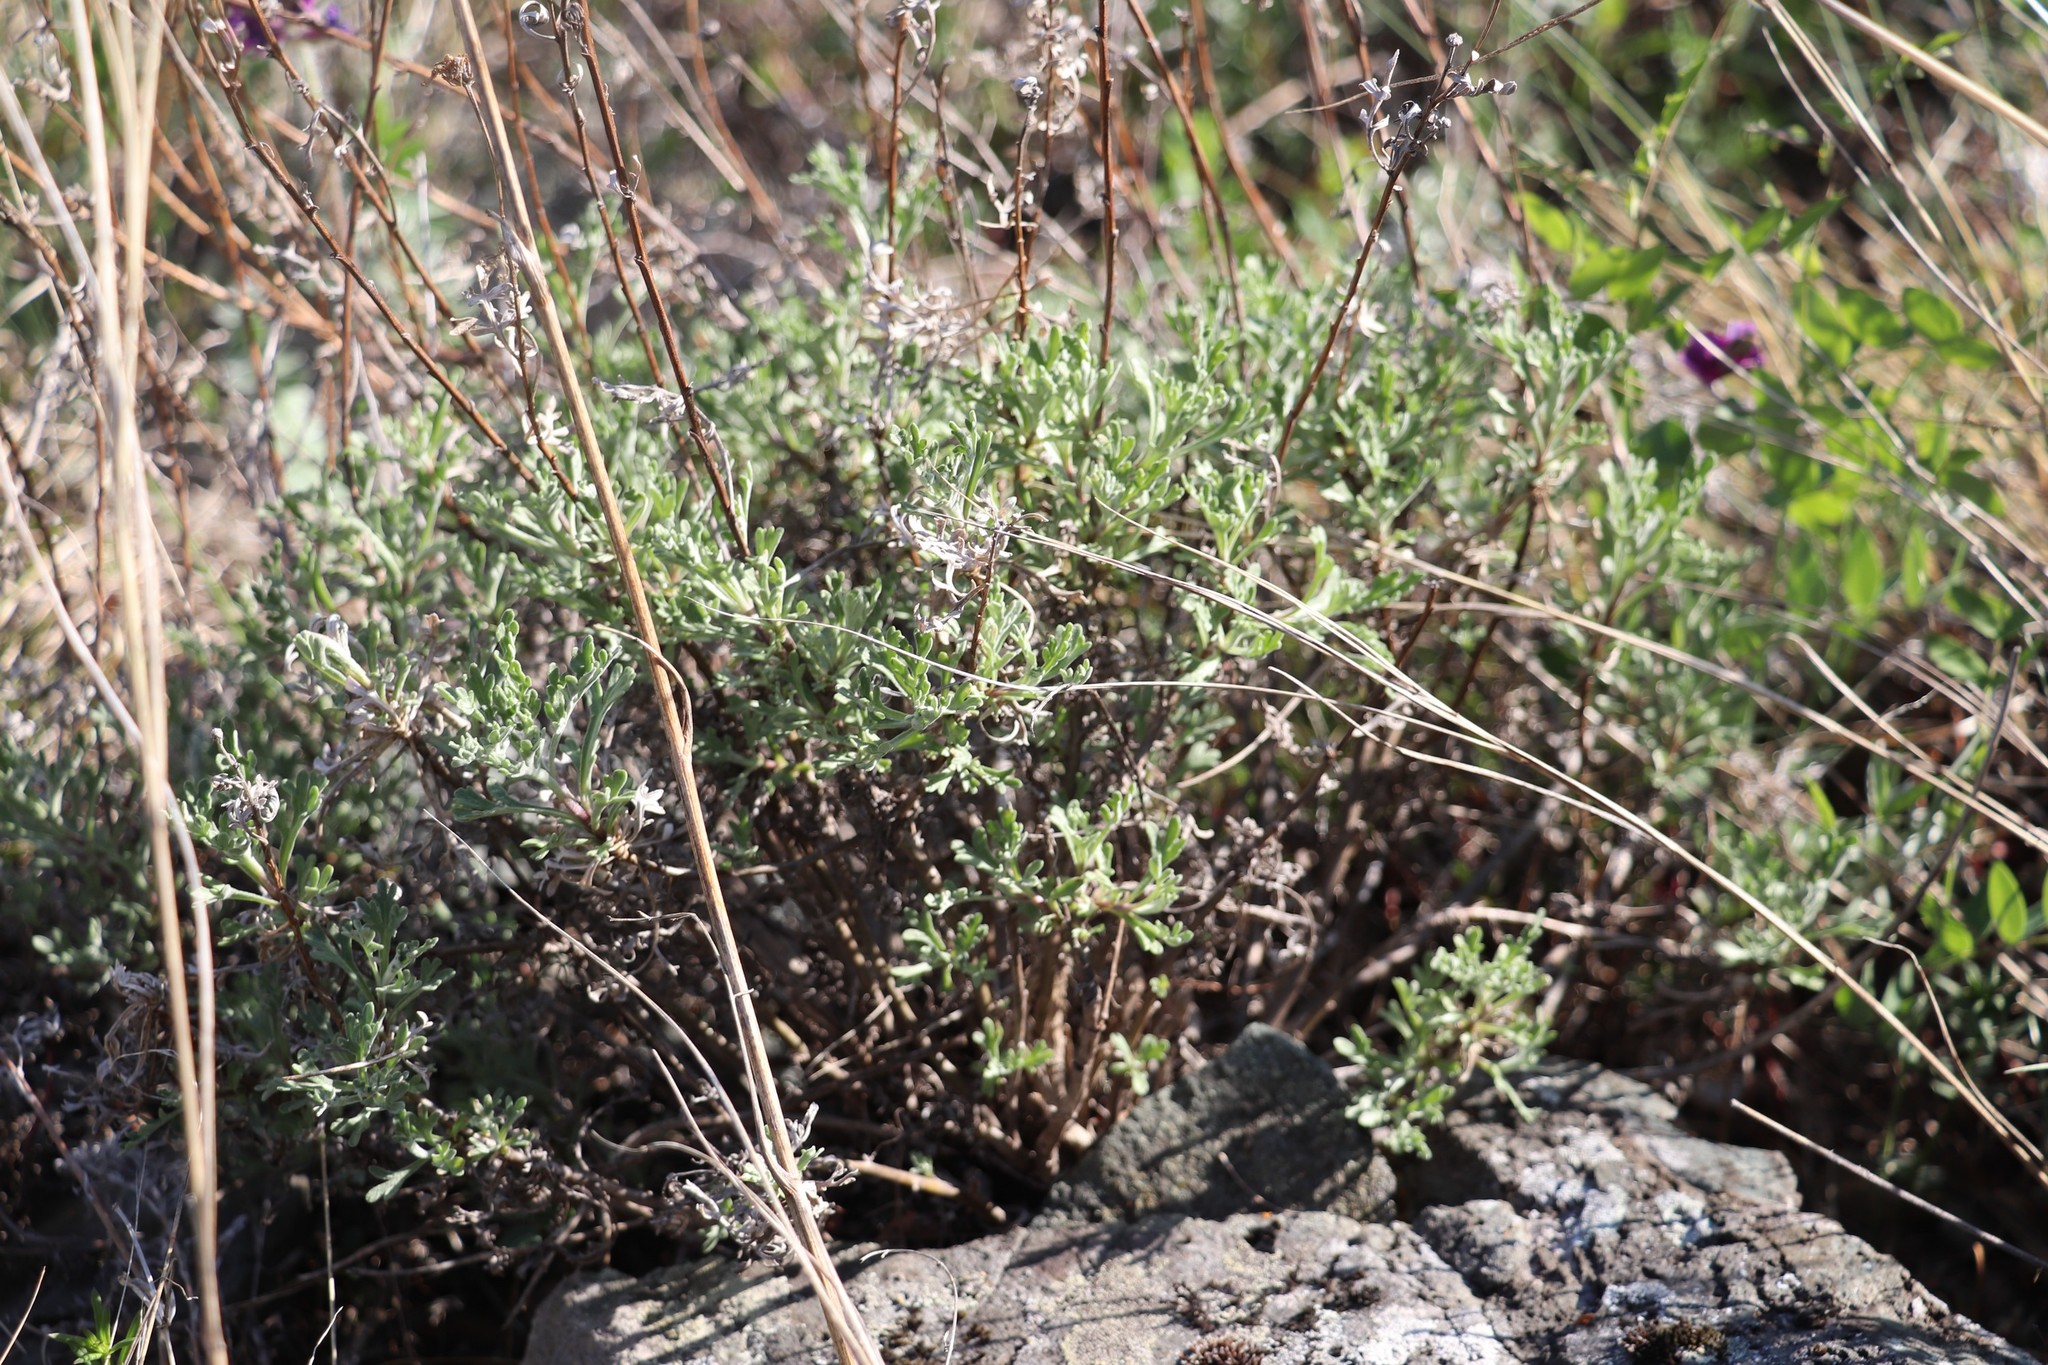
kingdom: Plantae
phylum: Tracheophyta
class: Magnoliopsida
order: Asterales
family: Asteraceae
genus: Chrysanthemum
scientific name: Chrysanthemum sinuatum
